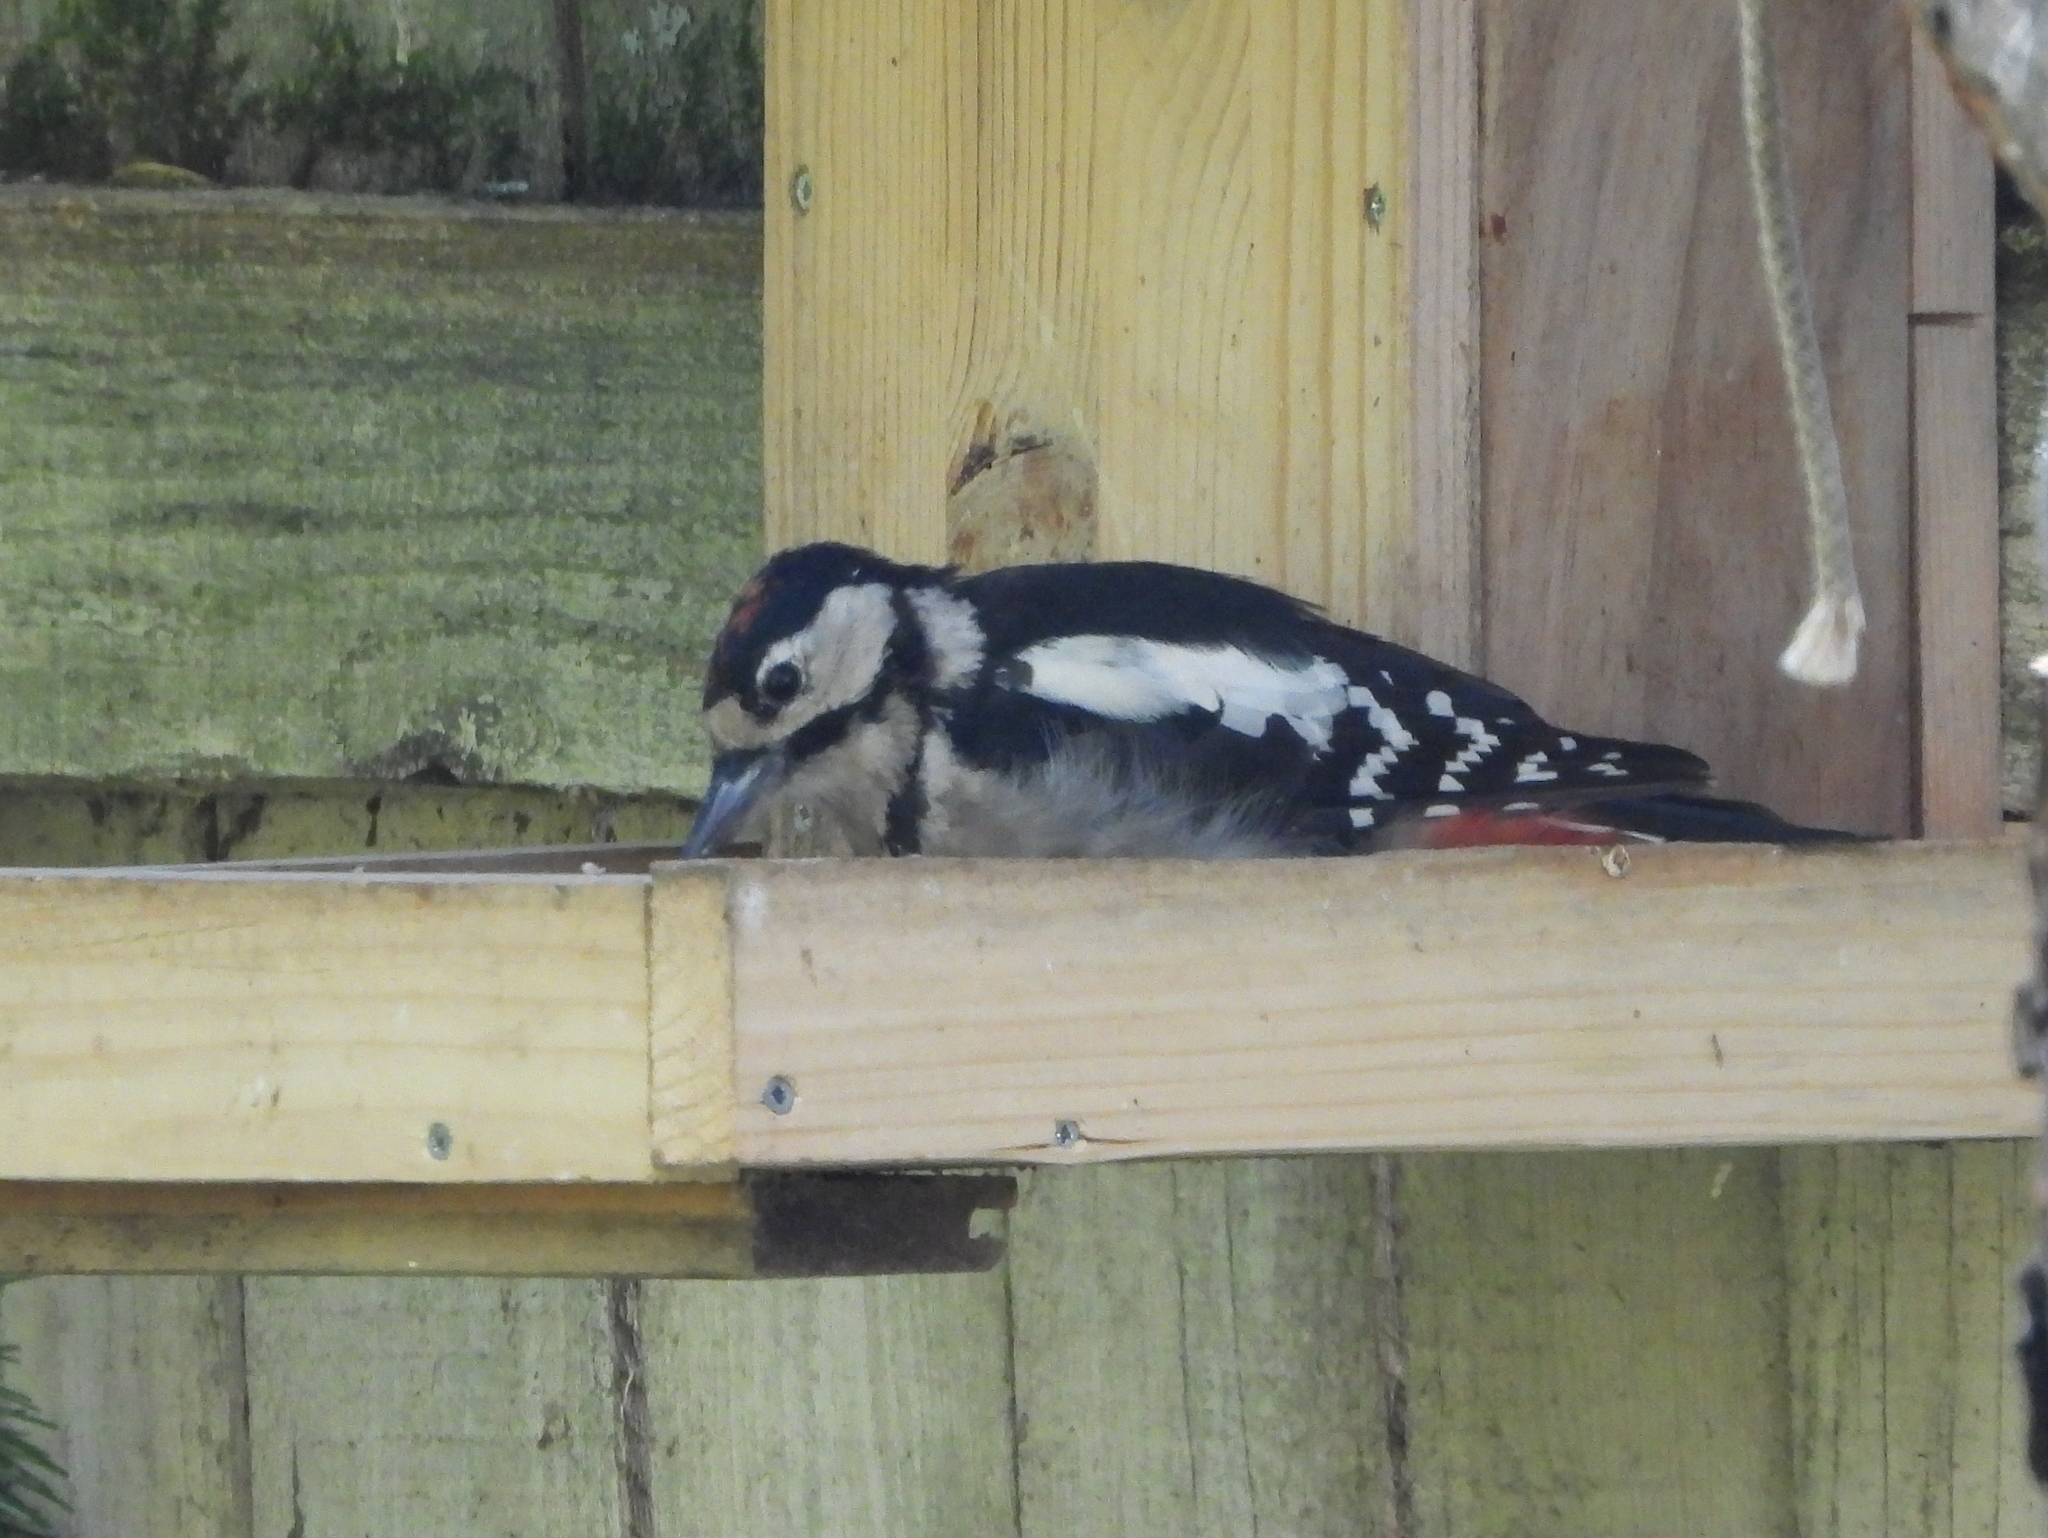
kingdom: Animalia
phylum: Chordata
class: Aves
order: Piciformes
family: Picidae
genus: Dendrocopos
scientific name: Dendrocopos major
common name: Great spotted woodpecker
